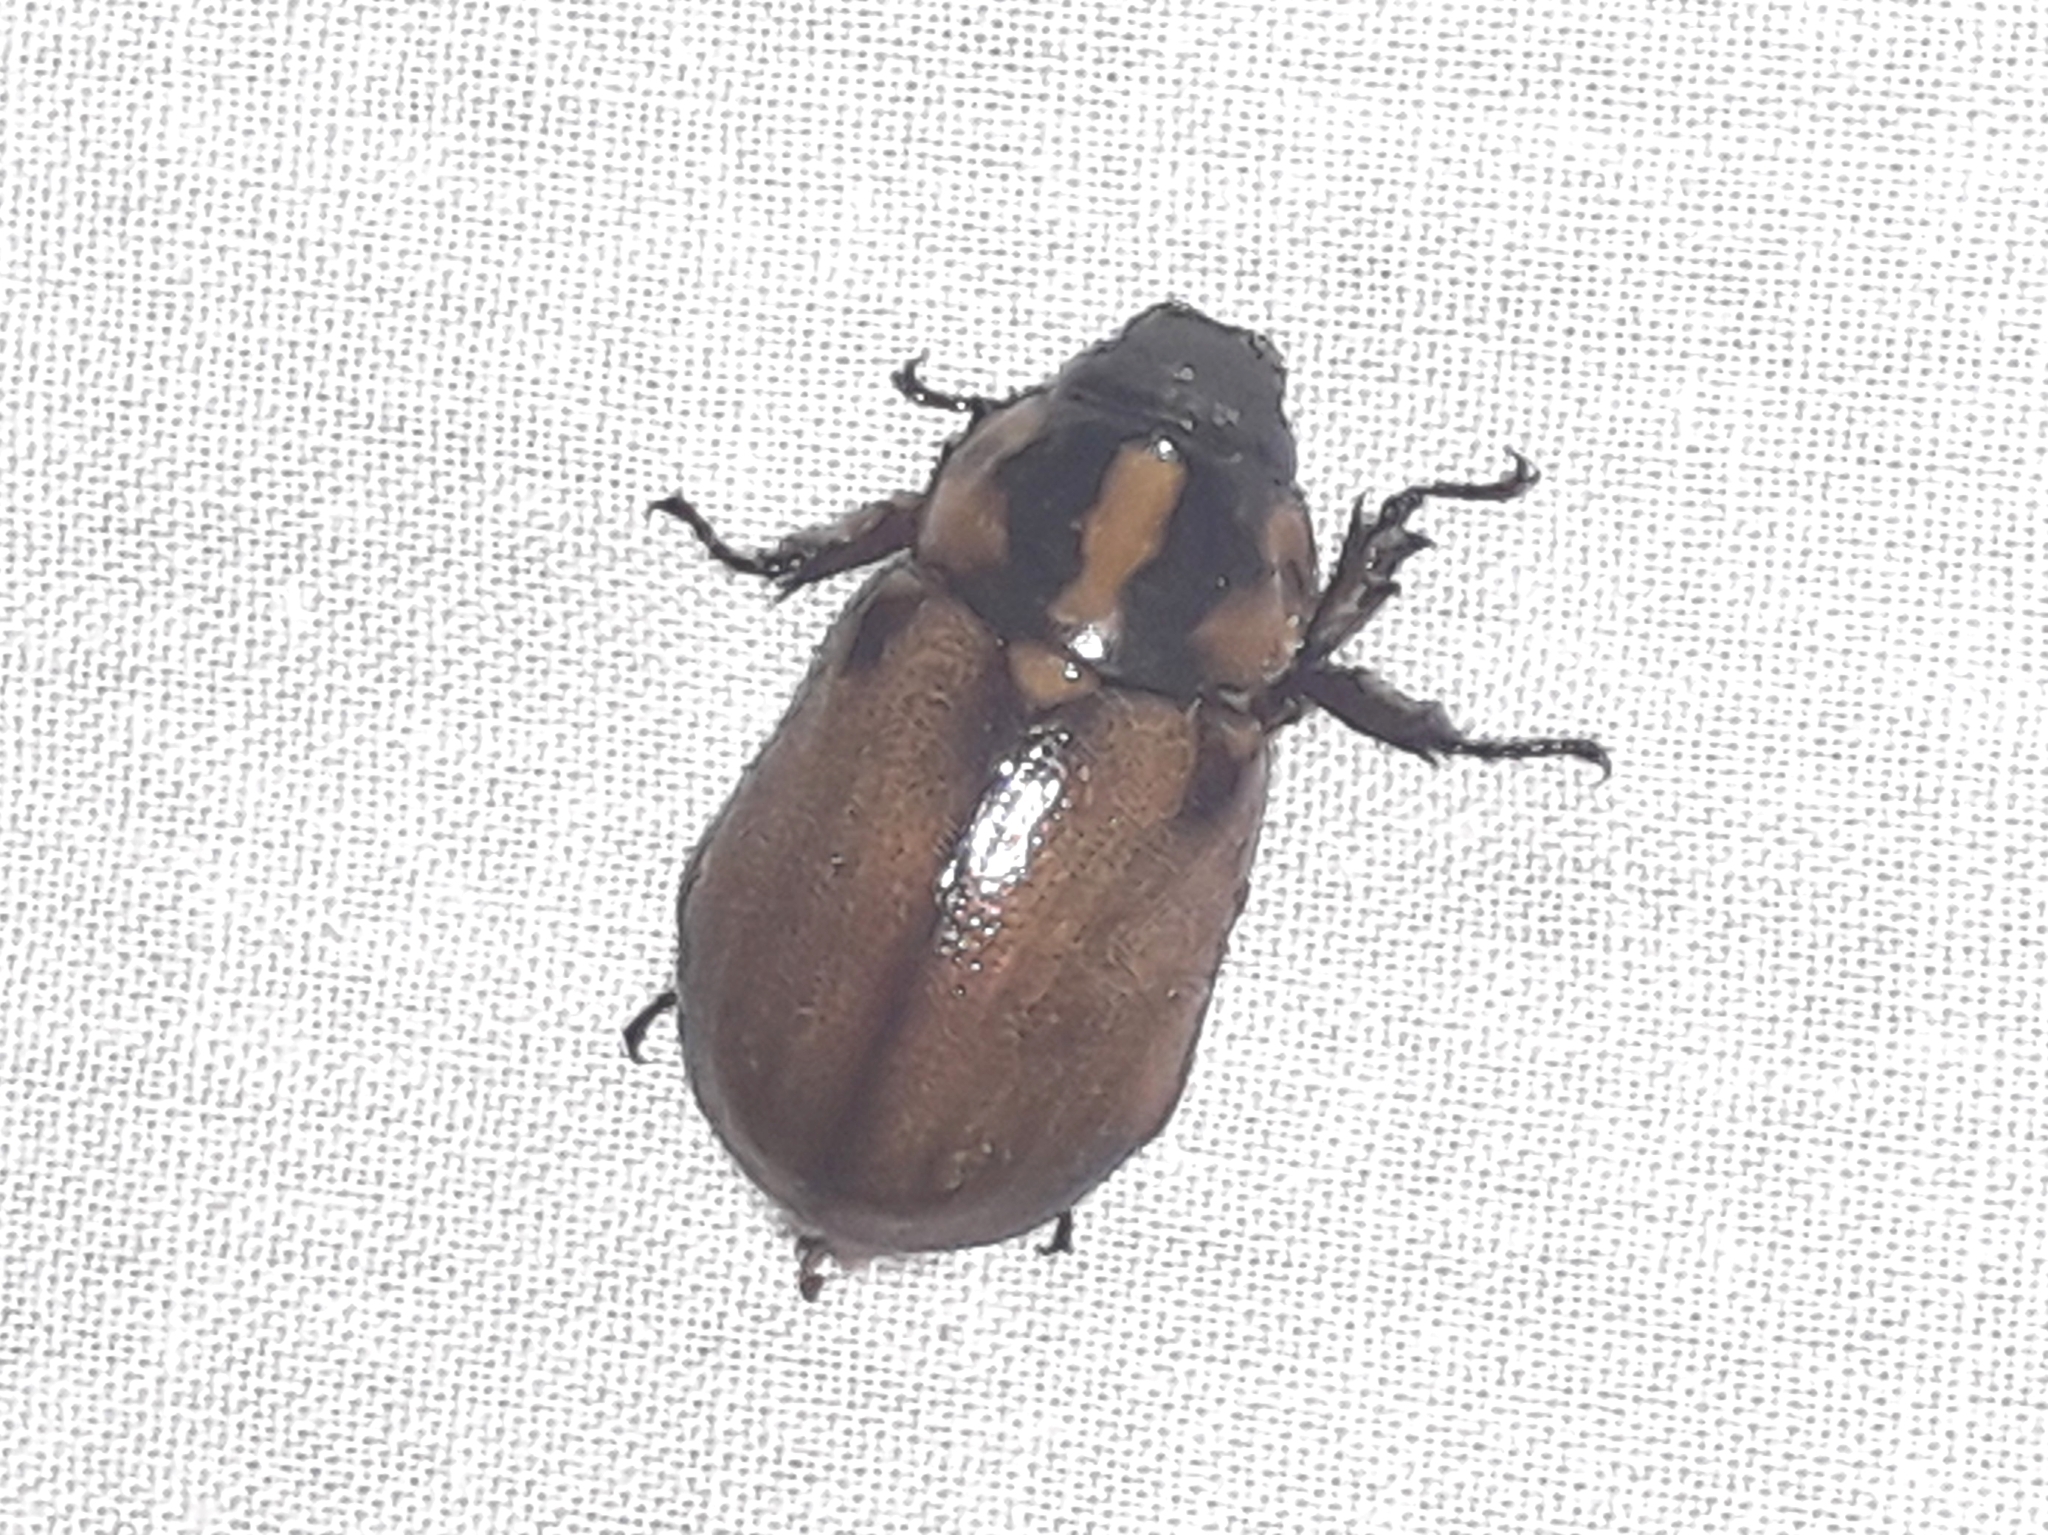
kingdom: Animalia
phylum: Arthropoda
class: Insecta
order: Coleoptera
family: Scarabaeidae
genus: Cyclocephala
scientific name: Cyclocephala mafaffa
